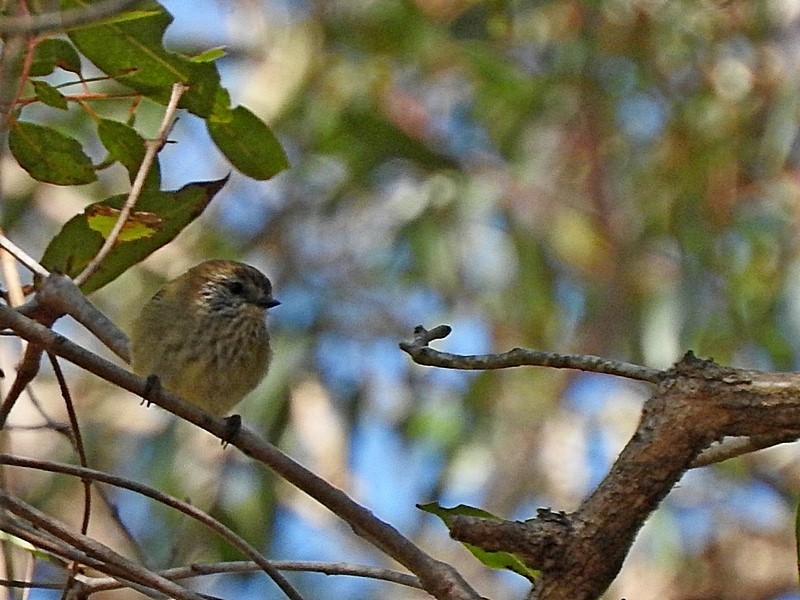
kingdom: Animalia
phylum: Chordata
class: Aves
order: Passeriformes
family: Acanthizidae
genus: Acanthiza
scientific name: Acanthiza lineata
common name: Striated thornbill
